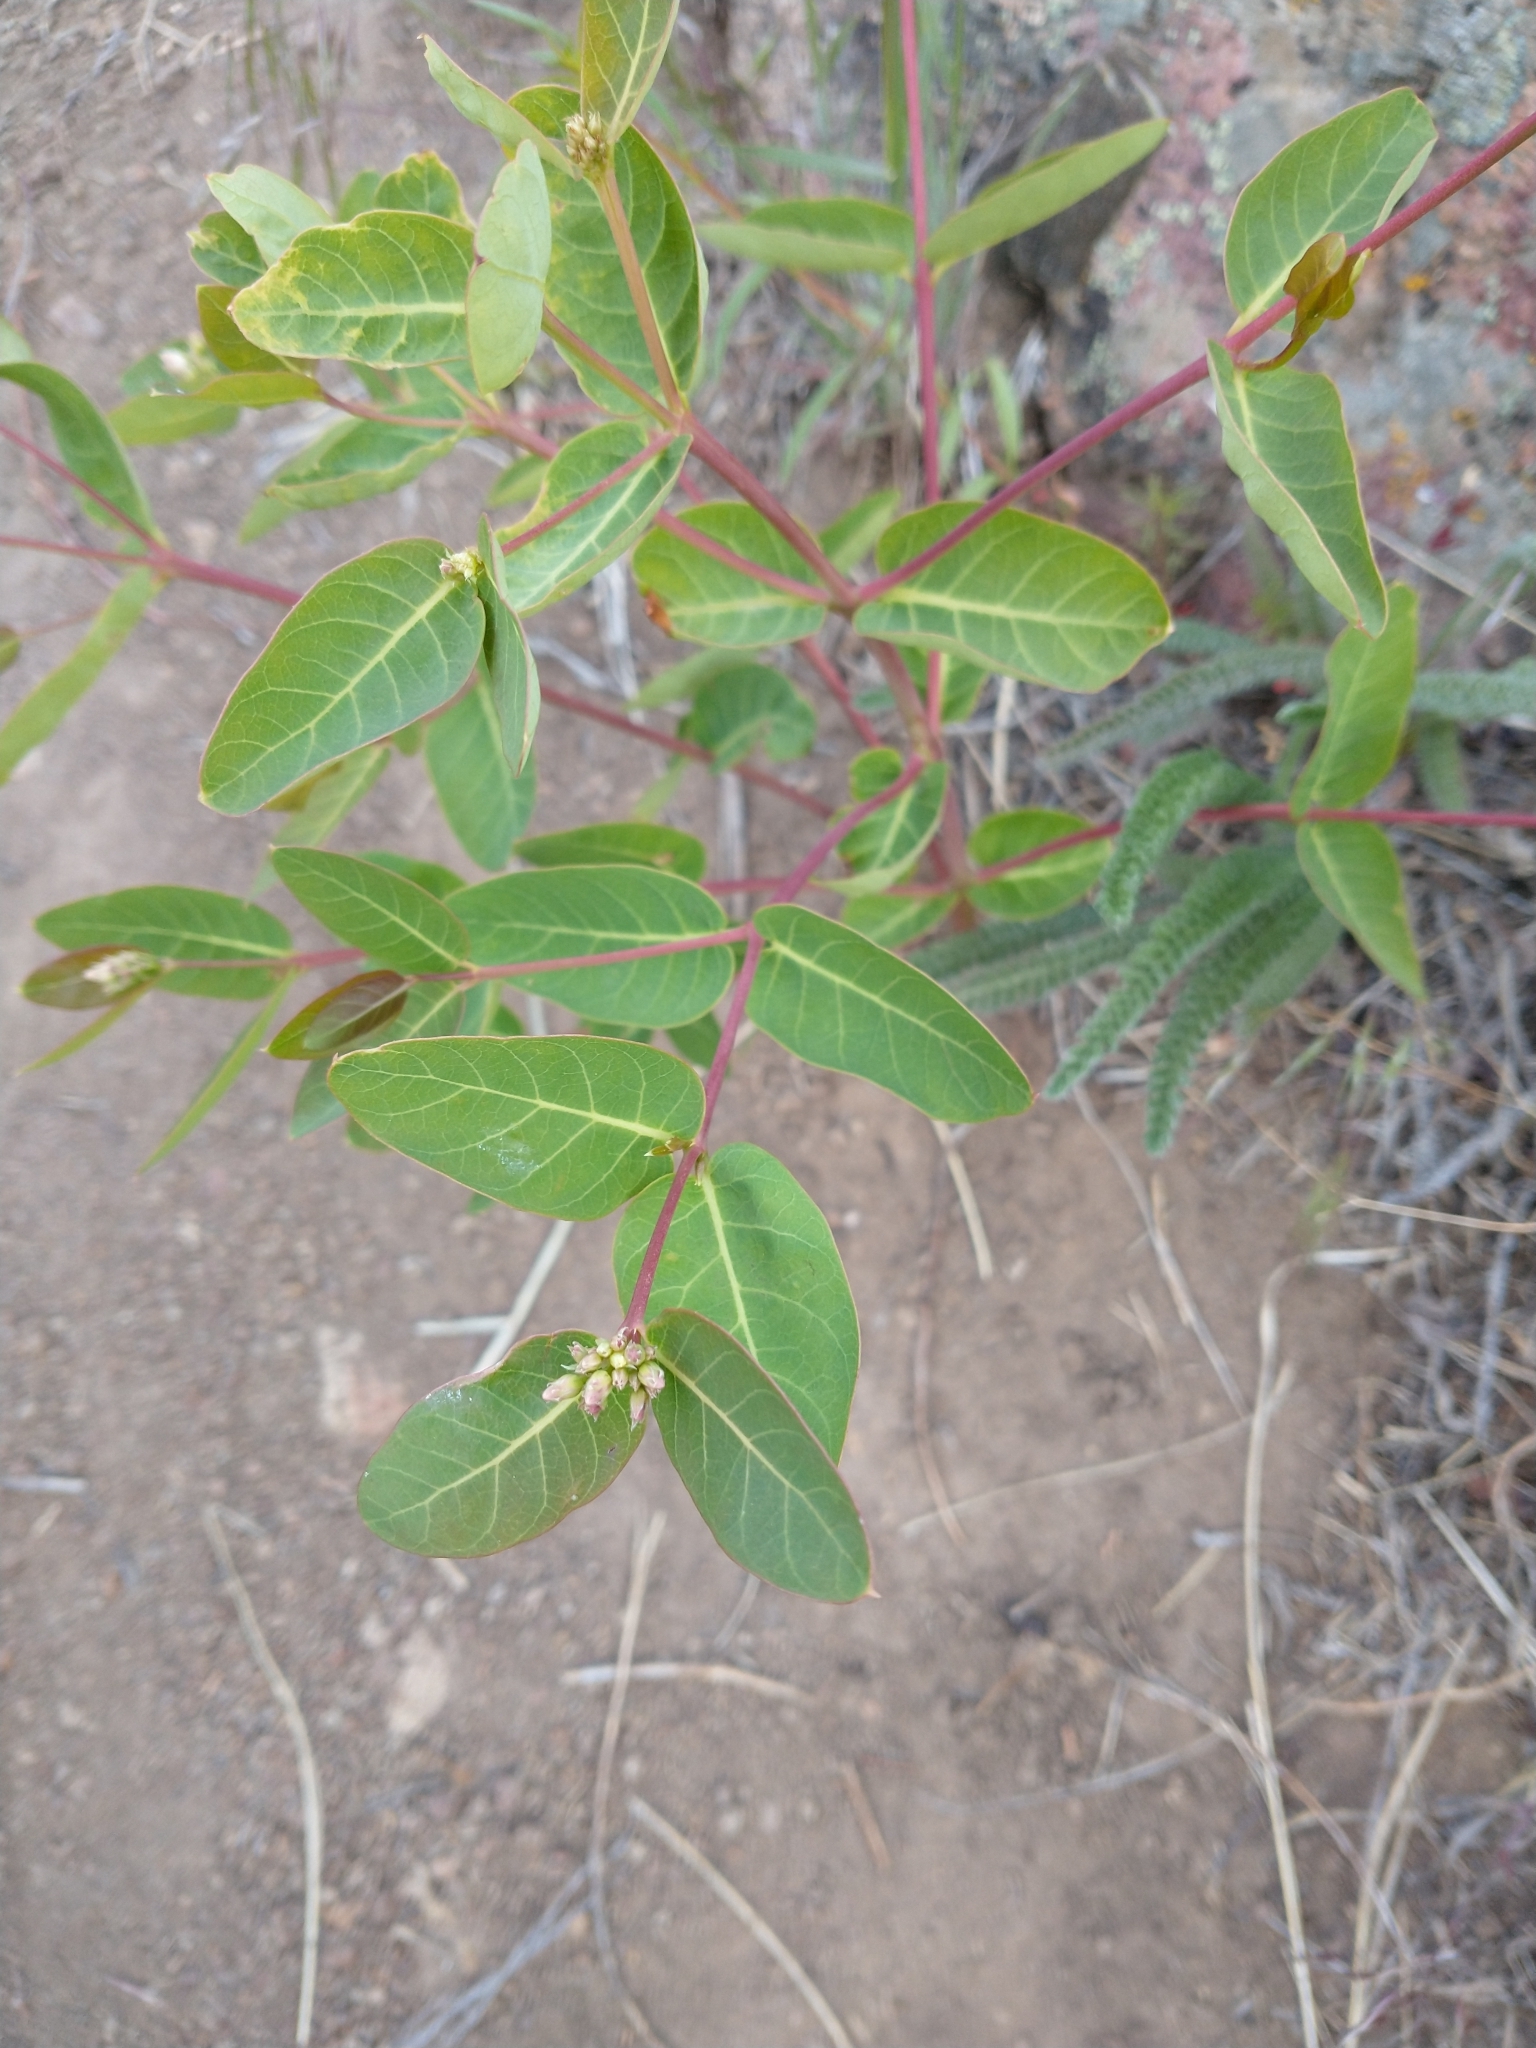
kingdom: Plantae
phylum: Tracheophyta
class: Magnoliopsida
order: Gentianales
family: Apocynaceae
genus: Apocynum
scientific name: Apocynum androsaemifolium
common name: Spreading dogbane
